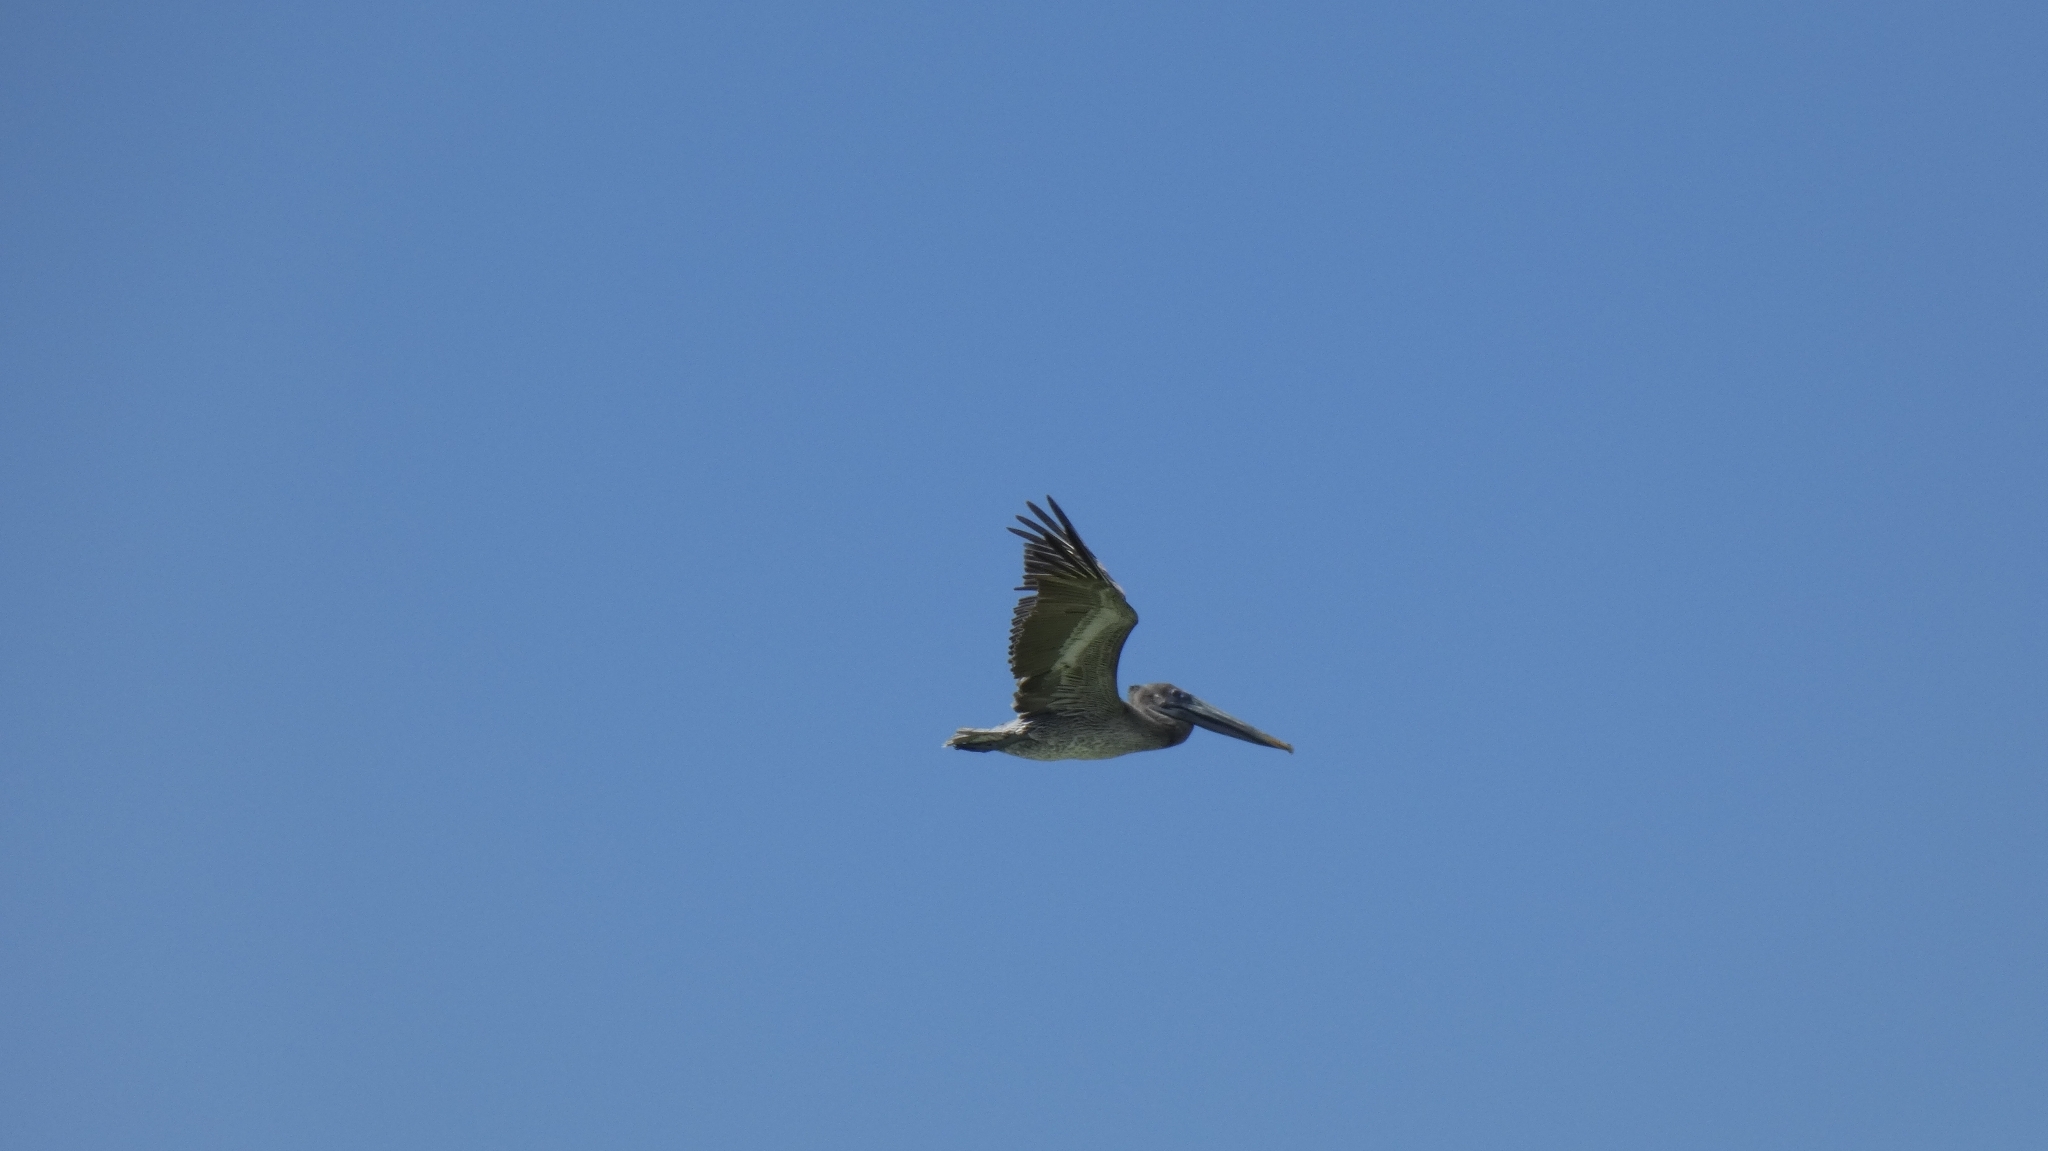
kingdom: Animalia
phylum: Chordata
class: Aves
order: Pelecaniformes
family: Pelecanidae
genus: Pelecanus
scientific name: Pelecanus occidentalis
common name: Brown pelican
